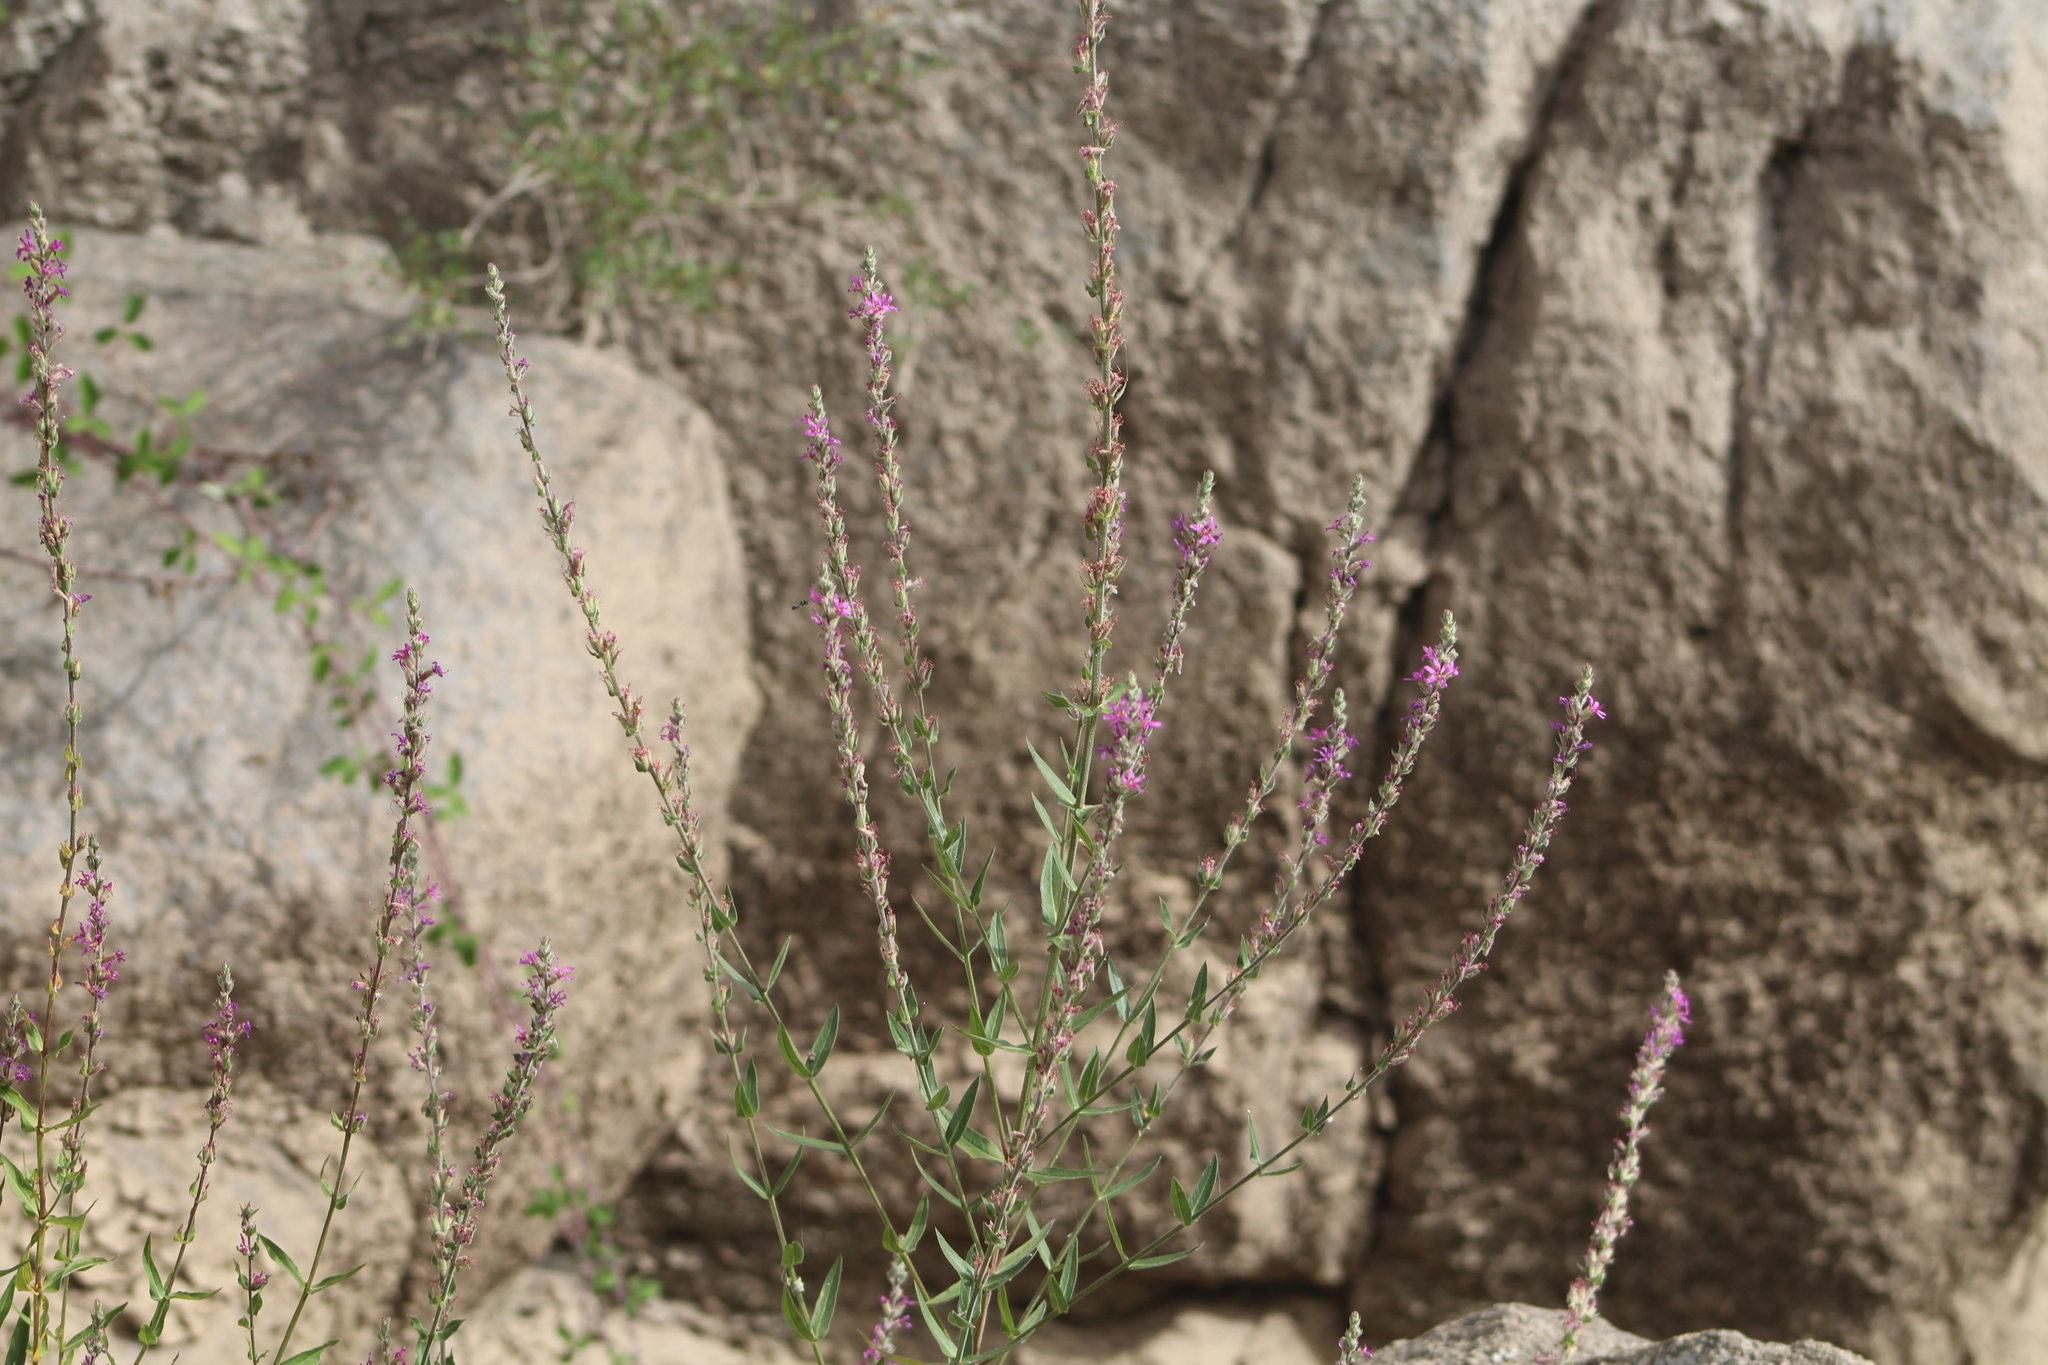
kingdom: Plantae
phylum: Tracheophyta
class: Magnoliopsida
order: Myrtales
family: Lythraceae
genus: Lythrum
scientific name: Lythrum salicaria
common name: Purple loosestrife
